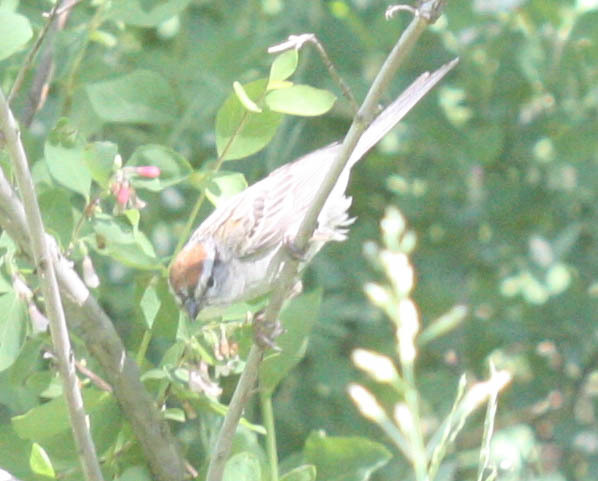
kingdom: Animalia
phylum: Chordata
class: Aves
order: Passeriformes
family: Passerellidae
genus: Spizella
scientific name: Spizella passerina
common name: Chipping sparrow
